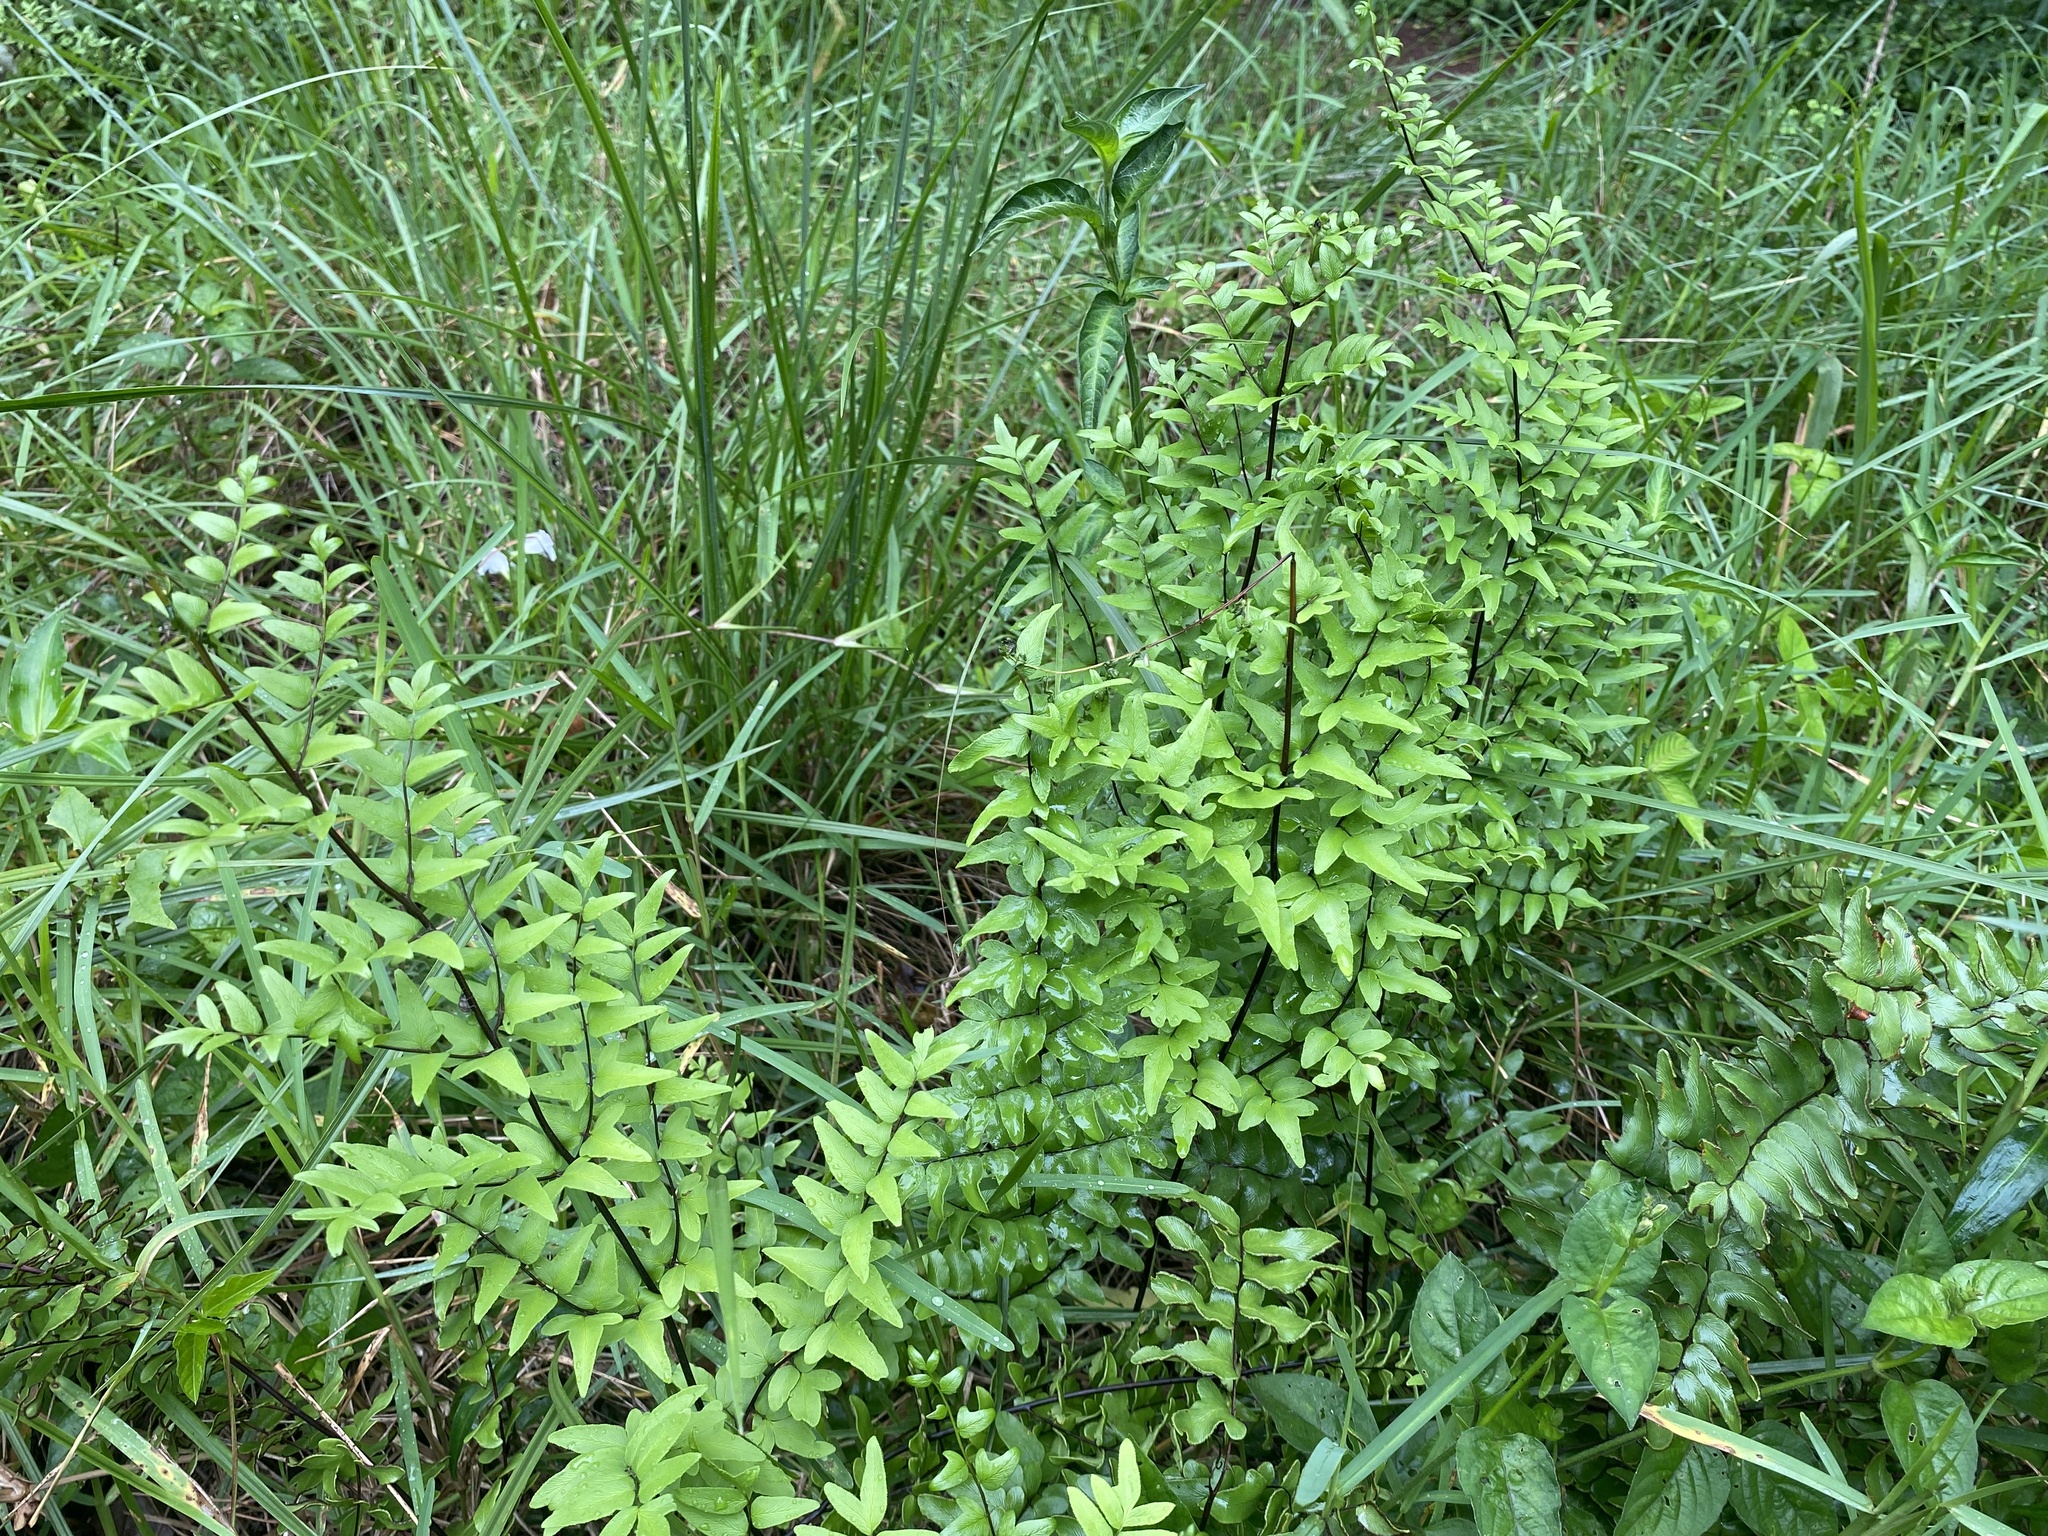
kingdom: Plantae
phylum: Tracheophyta
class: Polypodiopsida
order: Polypodiales
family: Pteridaceae
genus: Cheilanthes
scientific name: Cheilanthes viridis
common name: Green cliffbrake
